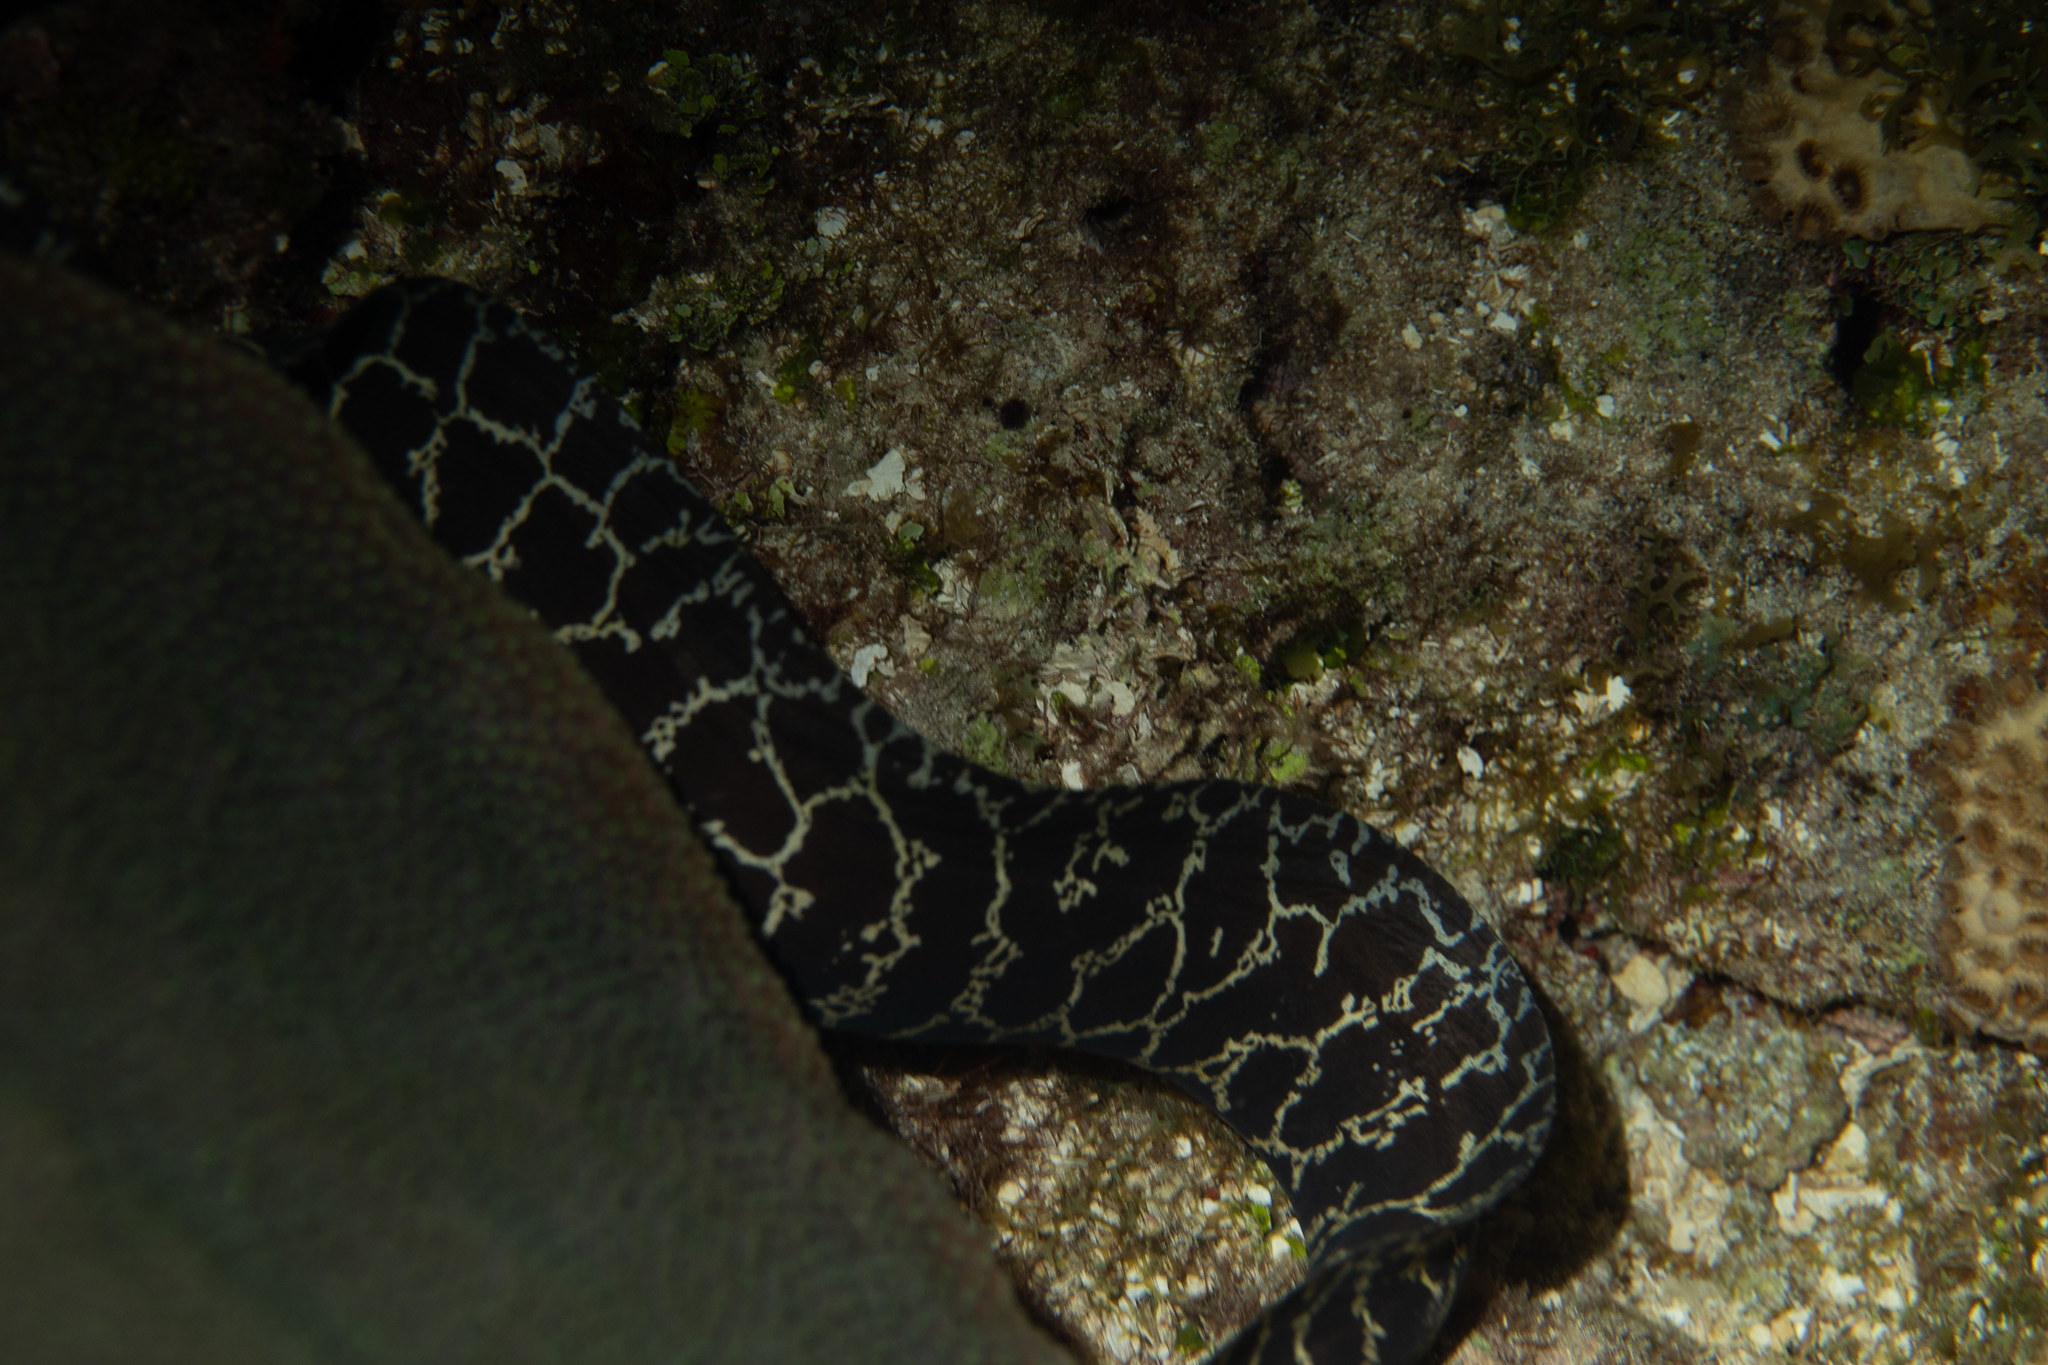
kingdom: Animalia
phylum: Chordata
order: Anguilliformes
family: Muraenidae
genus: Echidna
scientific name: Echidna catenata
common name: Chain moray
